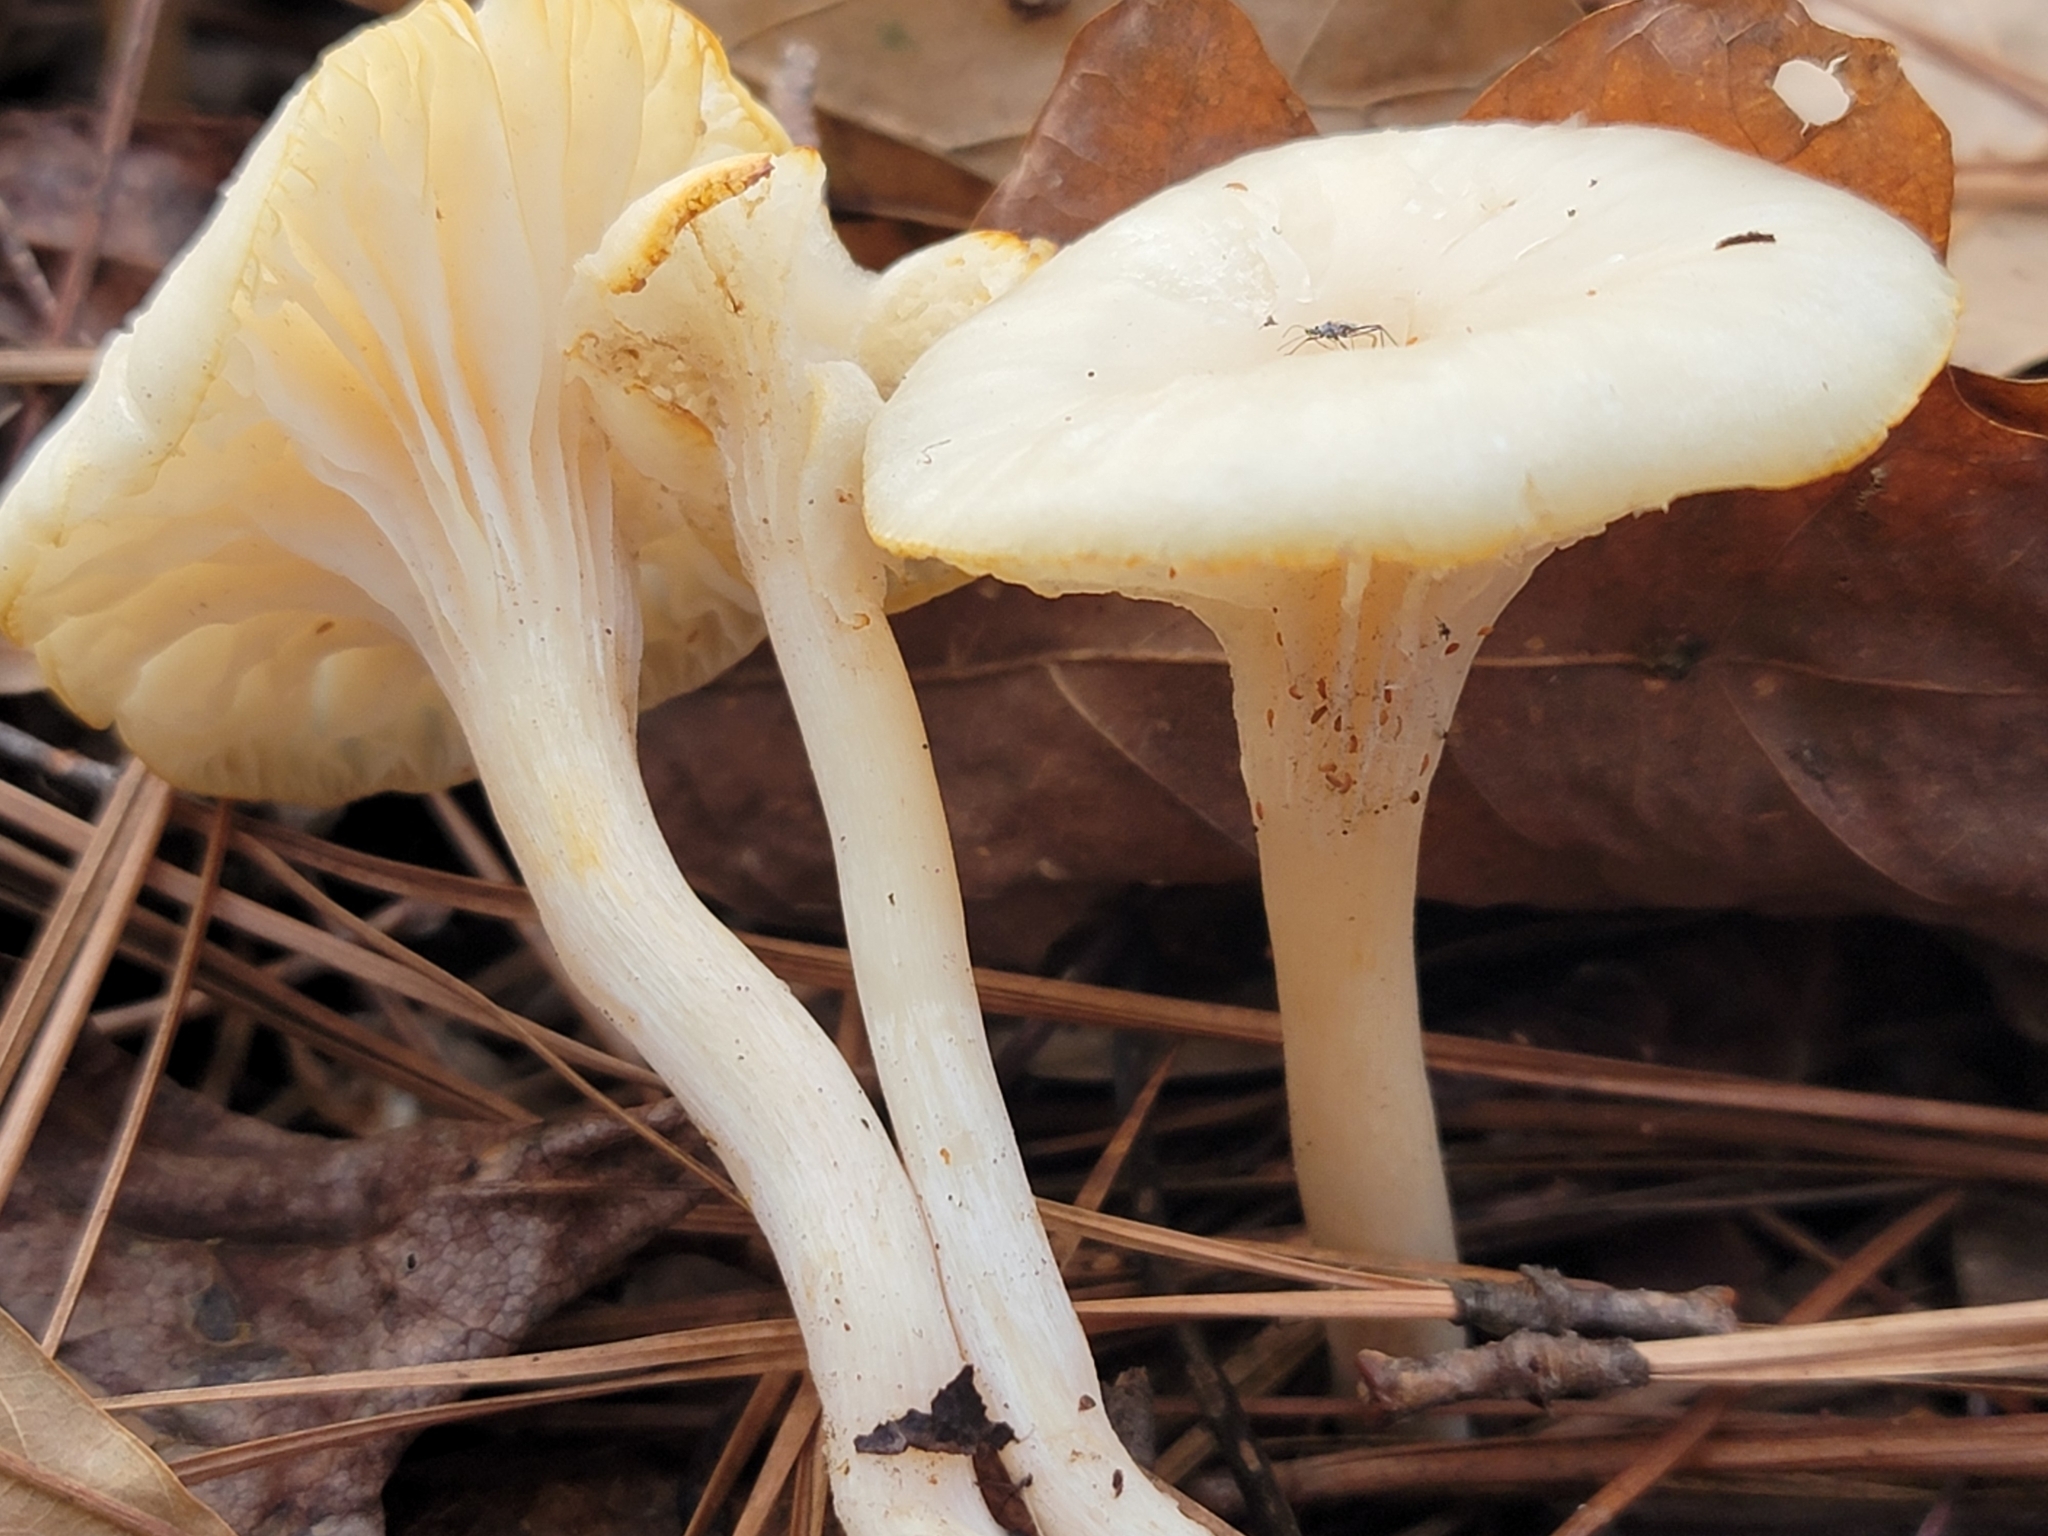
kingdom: Fungi
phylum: Basidiomycota
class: Agaricomycetes
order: Agaricales
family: Hygrophoraceae
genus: Cuphophyllus
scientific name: Cuphophyllus virgineus
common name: Snowy waxcap
